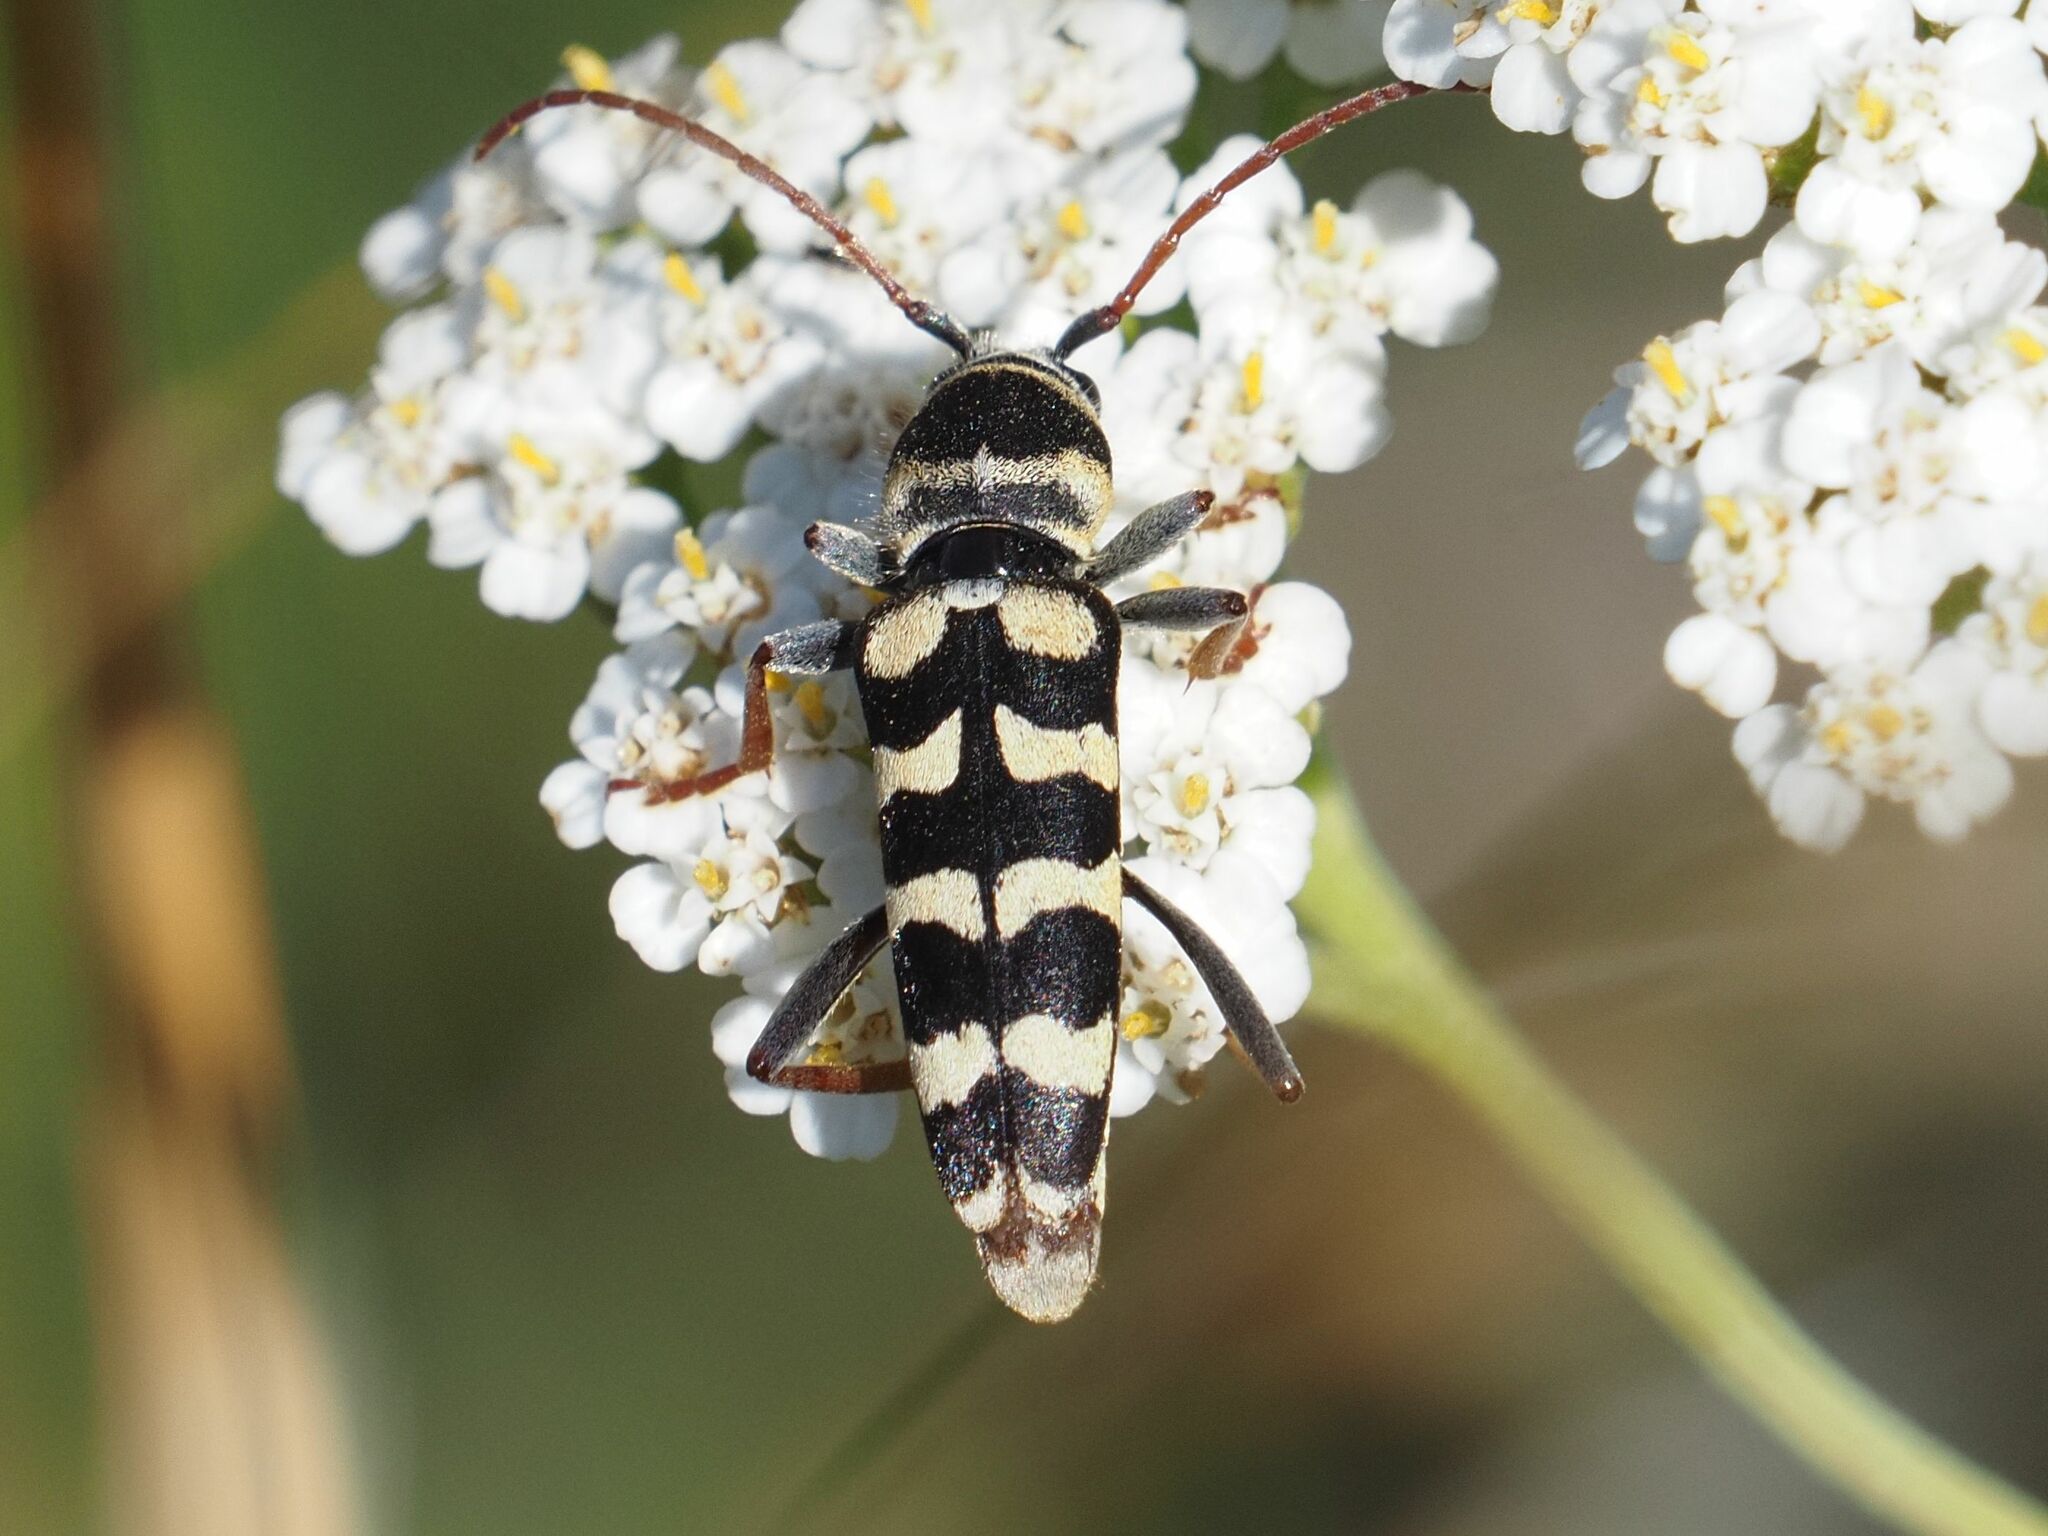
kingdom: Animalia
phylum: Arthropoda
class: Insecta
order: Coleoptera
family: Cerambycidae
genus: Plagionotus
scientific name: Plagionotus floralis
